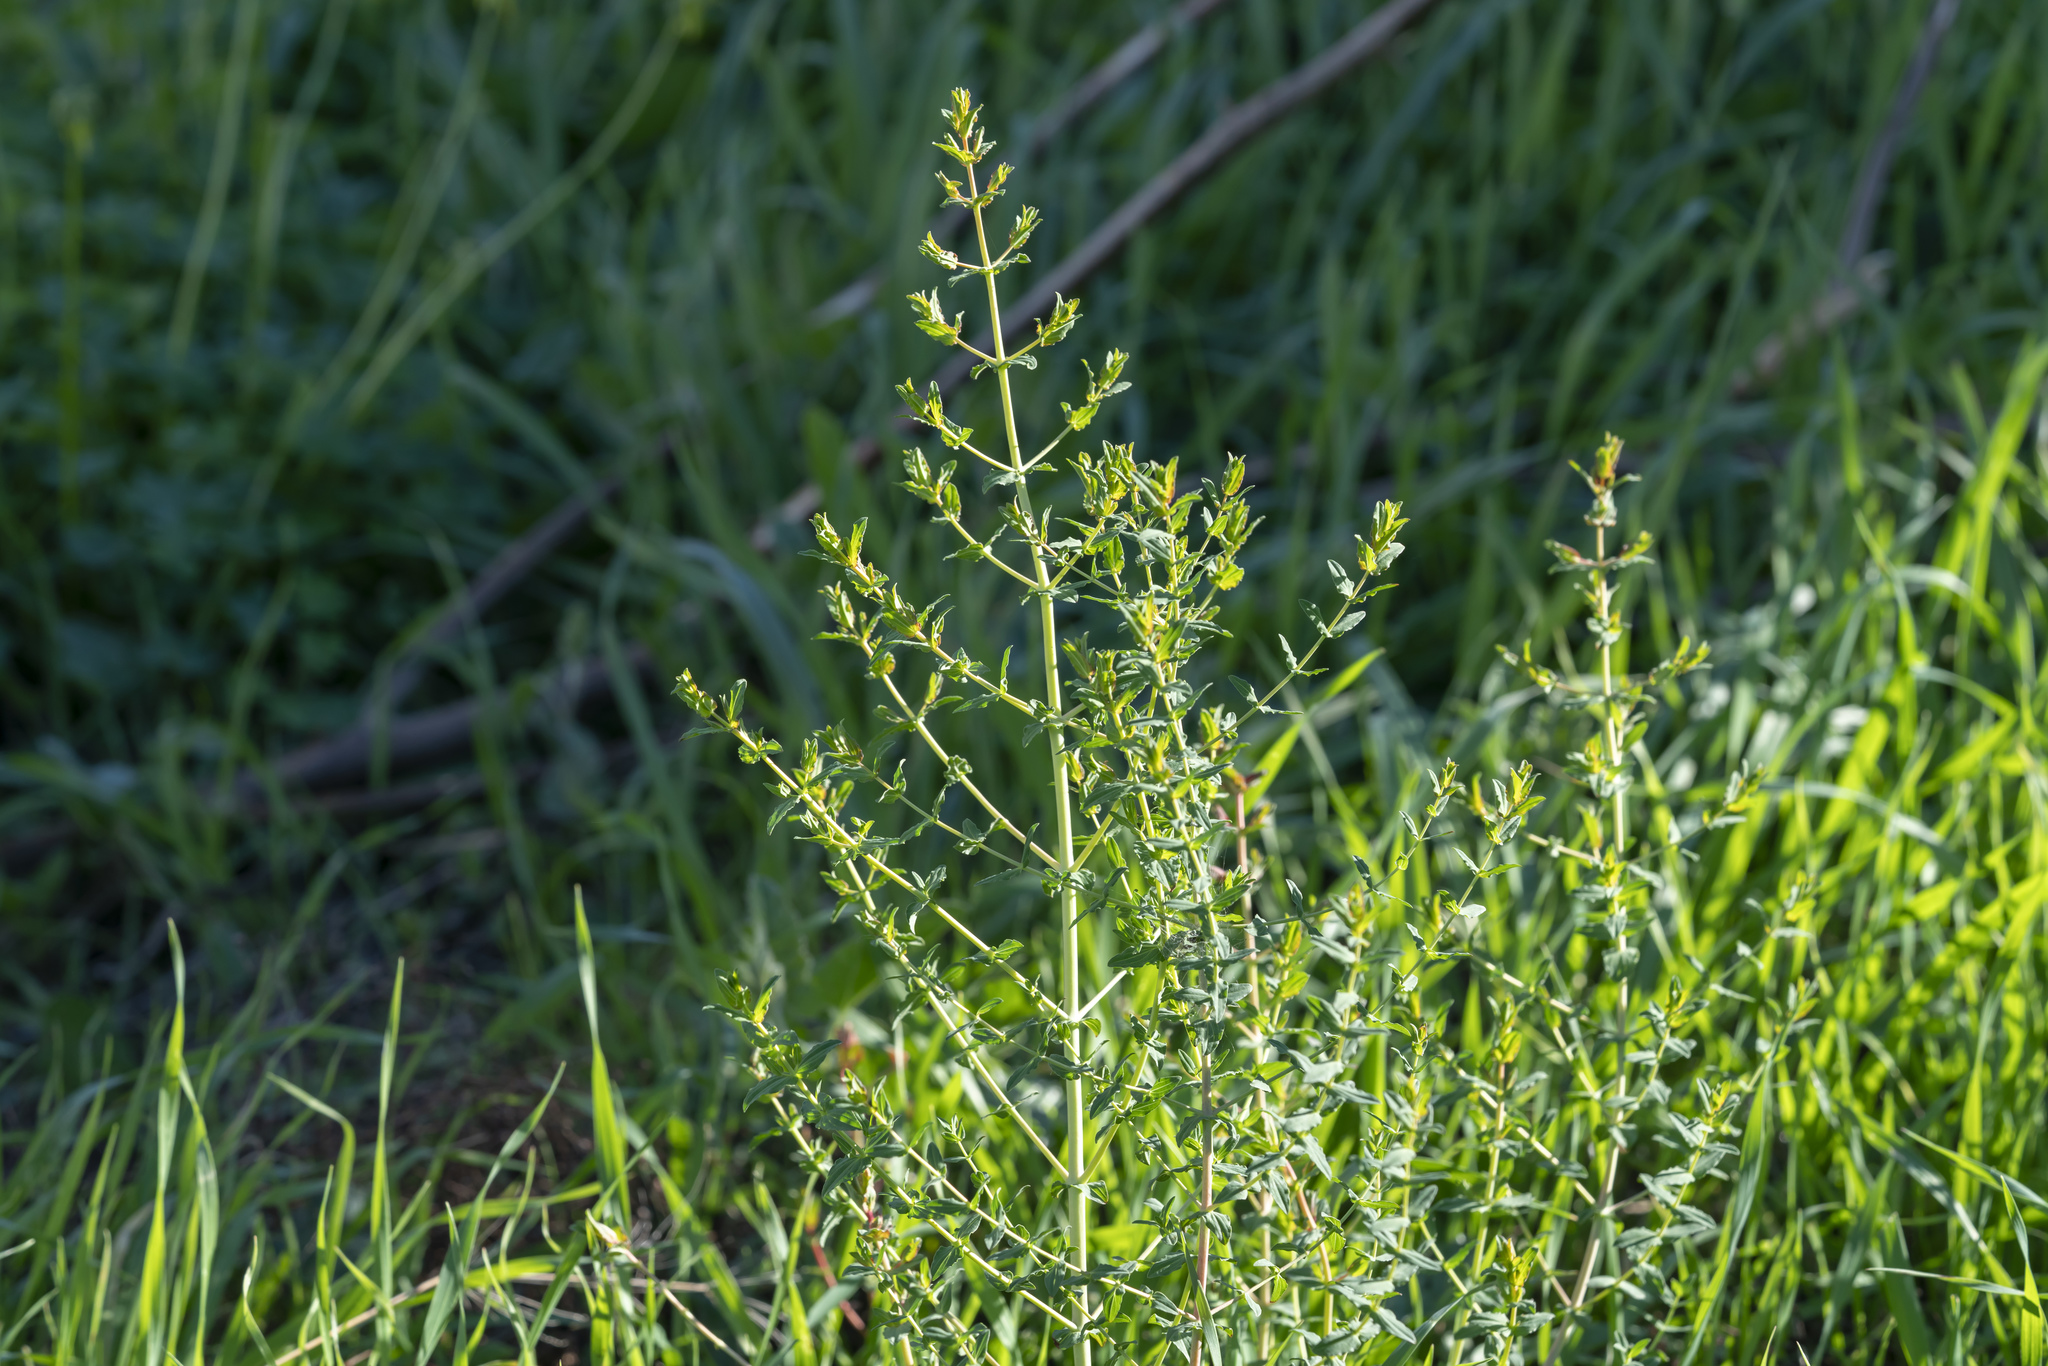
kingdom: Plantae
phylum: Tracheophyta
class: Magnoliopsida
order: Malpighiales
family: Hypericaceae
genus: Hypericum
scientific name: Hypericum triquetrifolium
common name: Tangled hypericum
